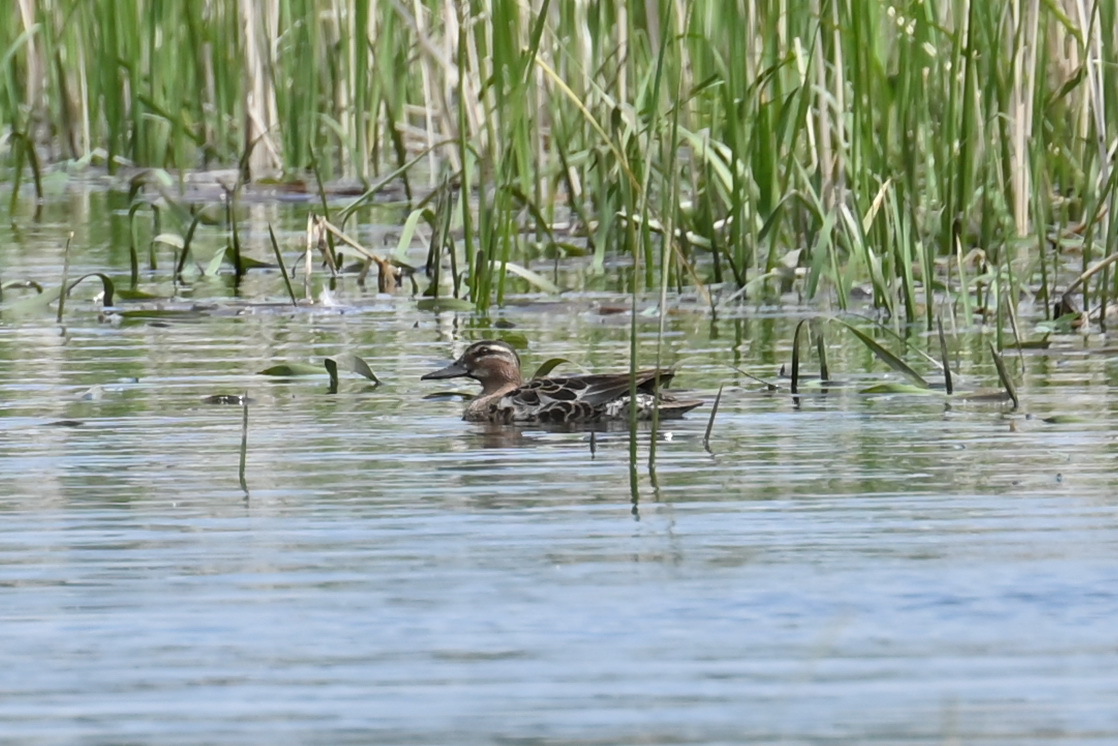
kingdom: Animalia
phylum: Chordata
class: Aves
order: Anseriformes
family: Anatidae
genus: Spatula
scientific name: Spatula querquedula
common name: Garganey
